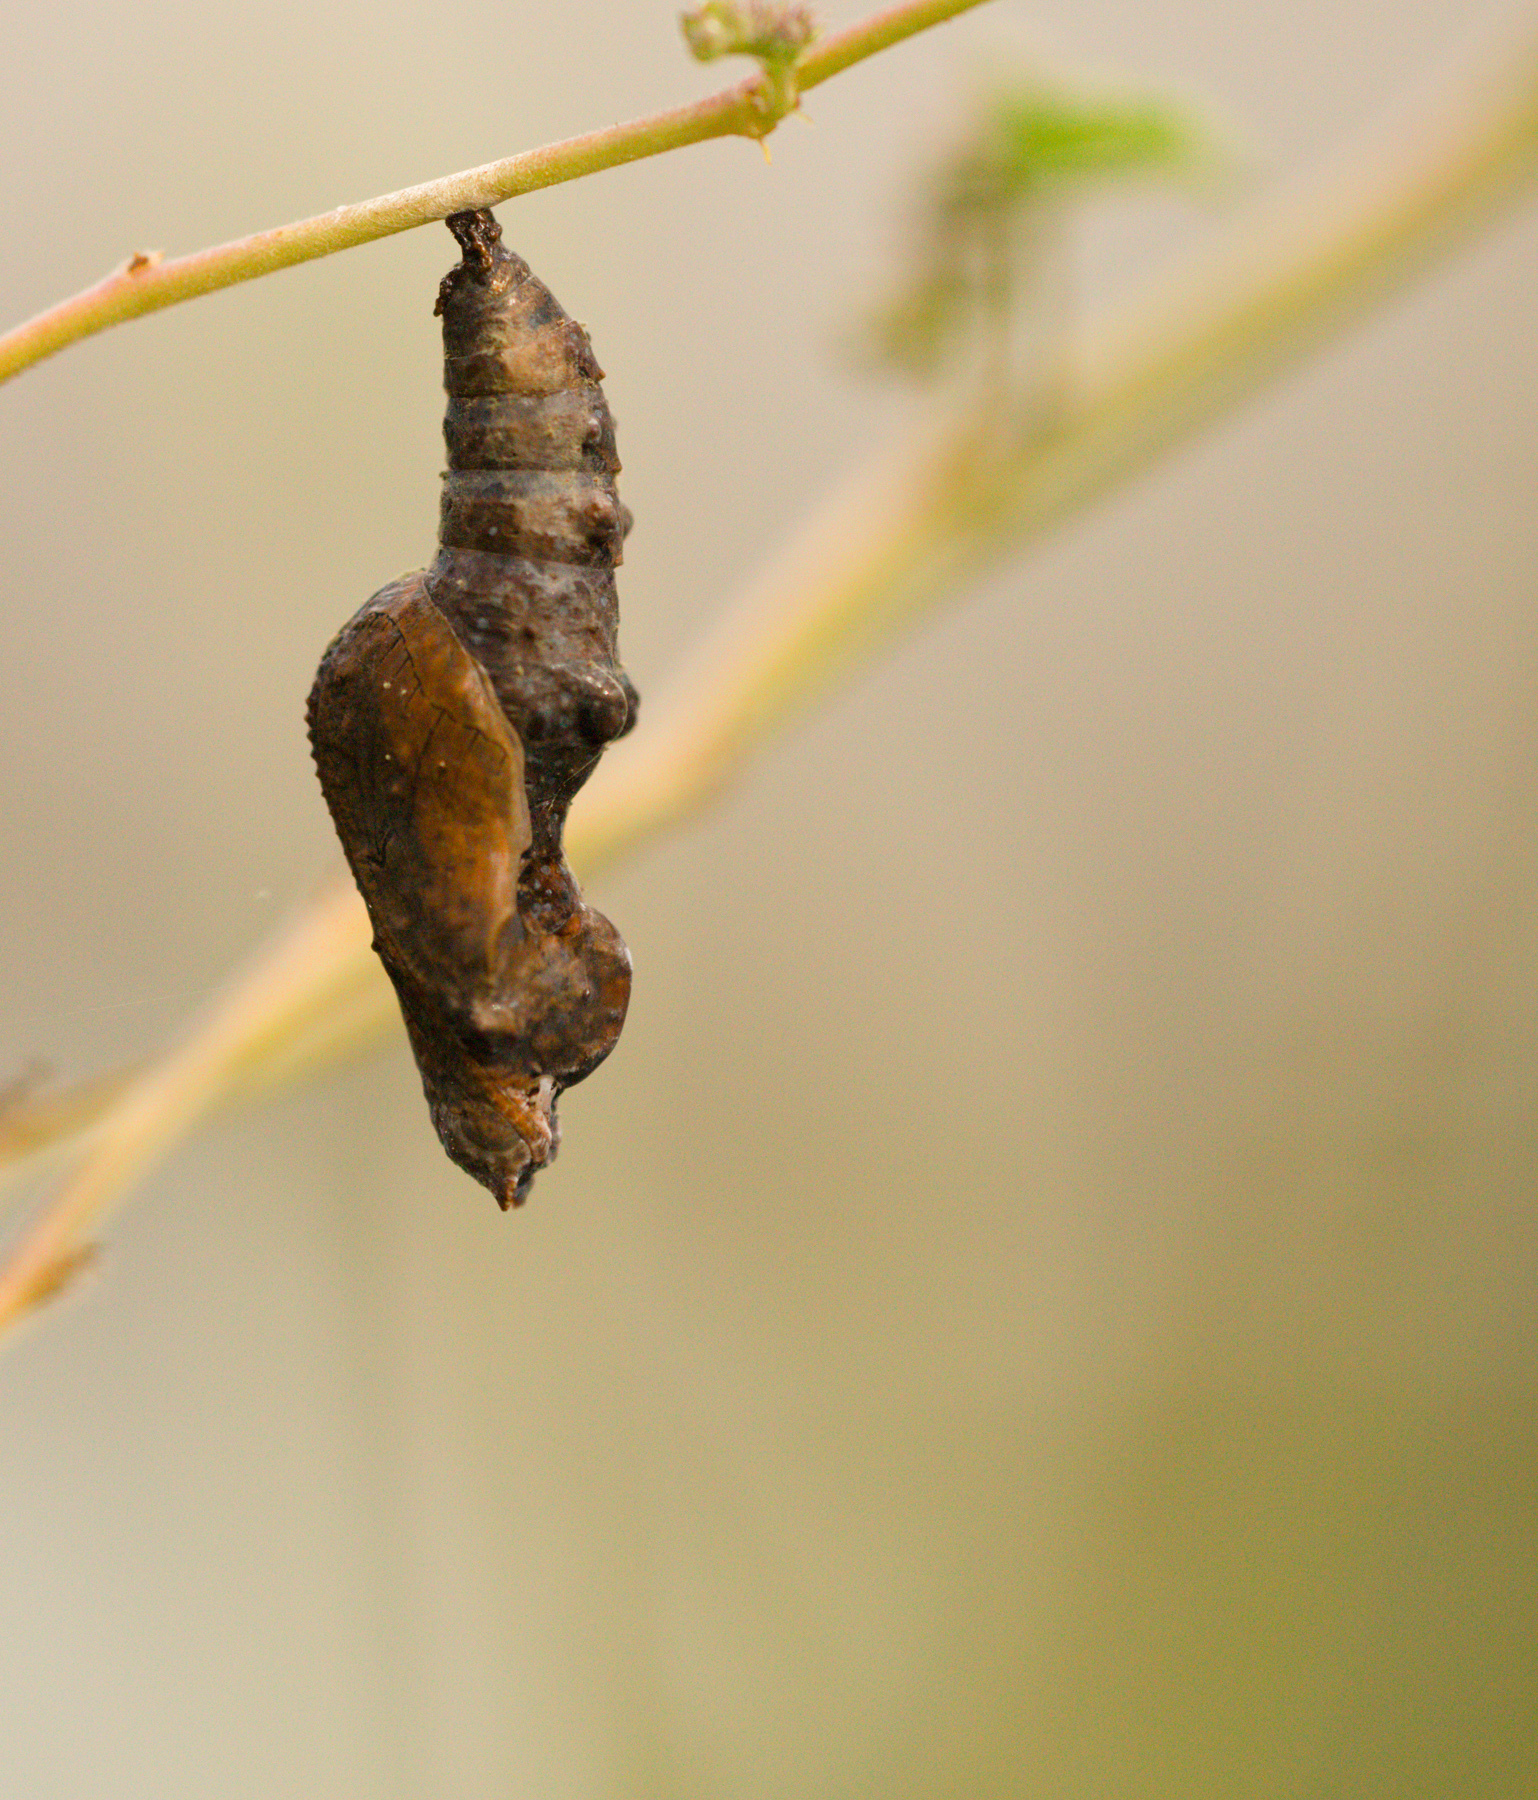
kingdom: Animalia
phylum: Arthropoda
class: Insecta
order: Lepidoptera
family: Nymphalidae
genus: Dione
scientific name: Dione vanillae
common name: Gulf fritillary
